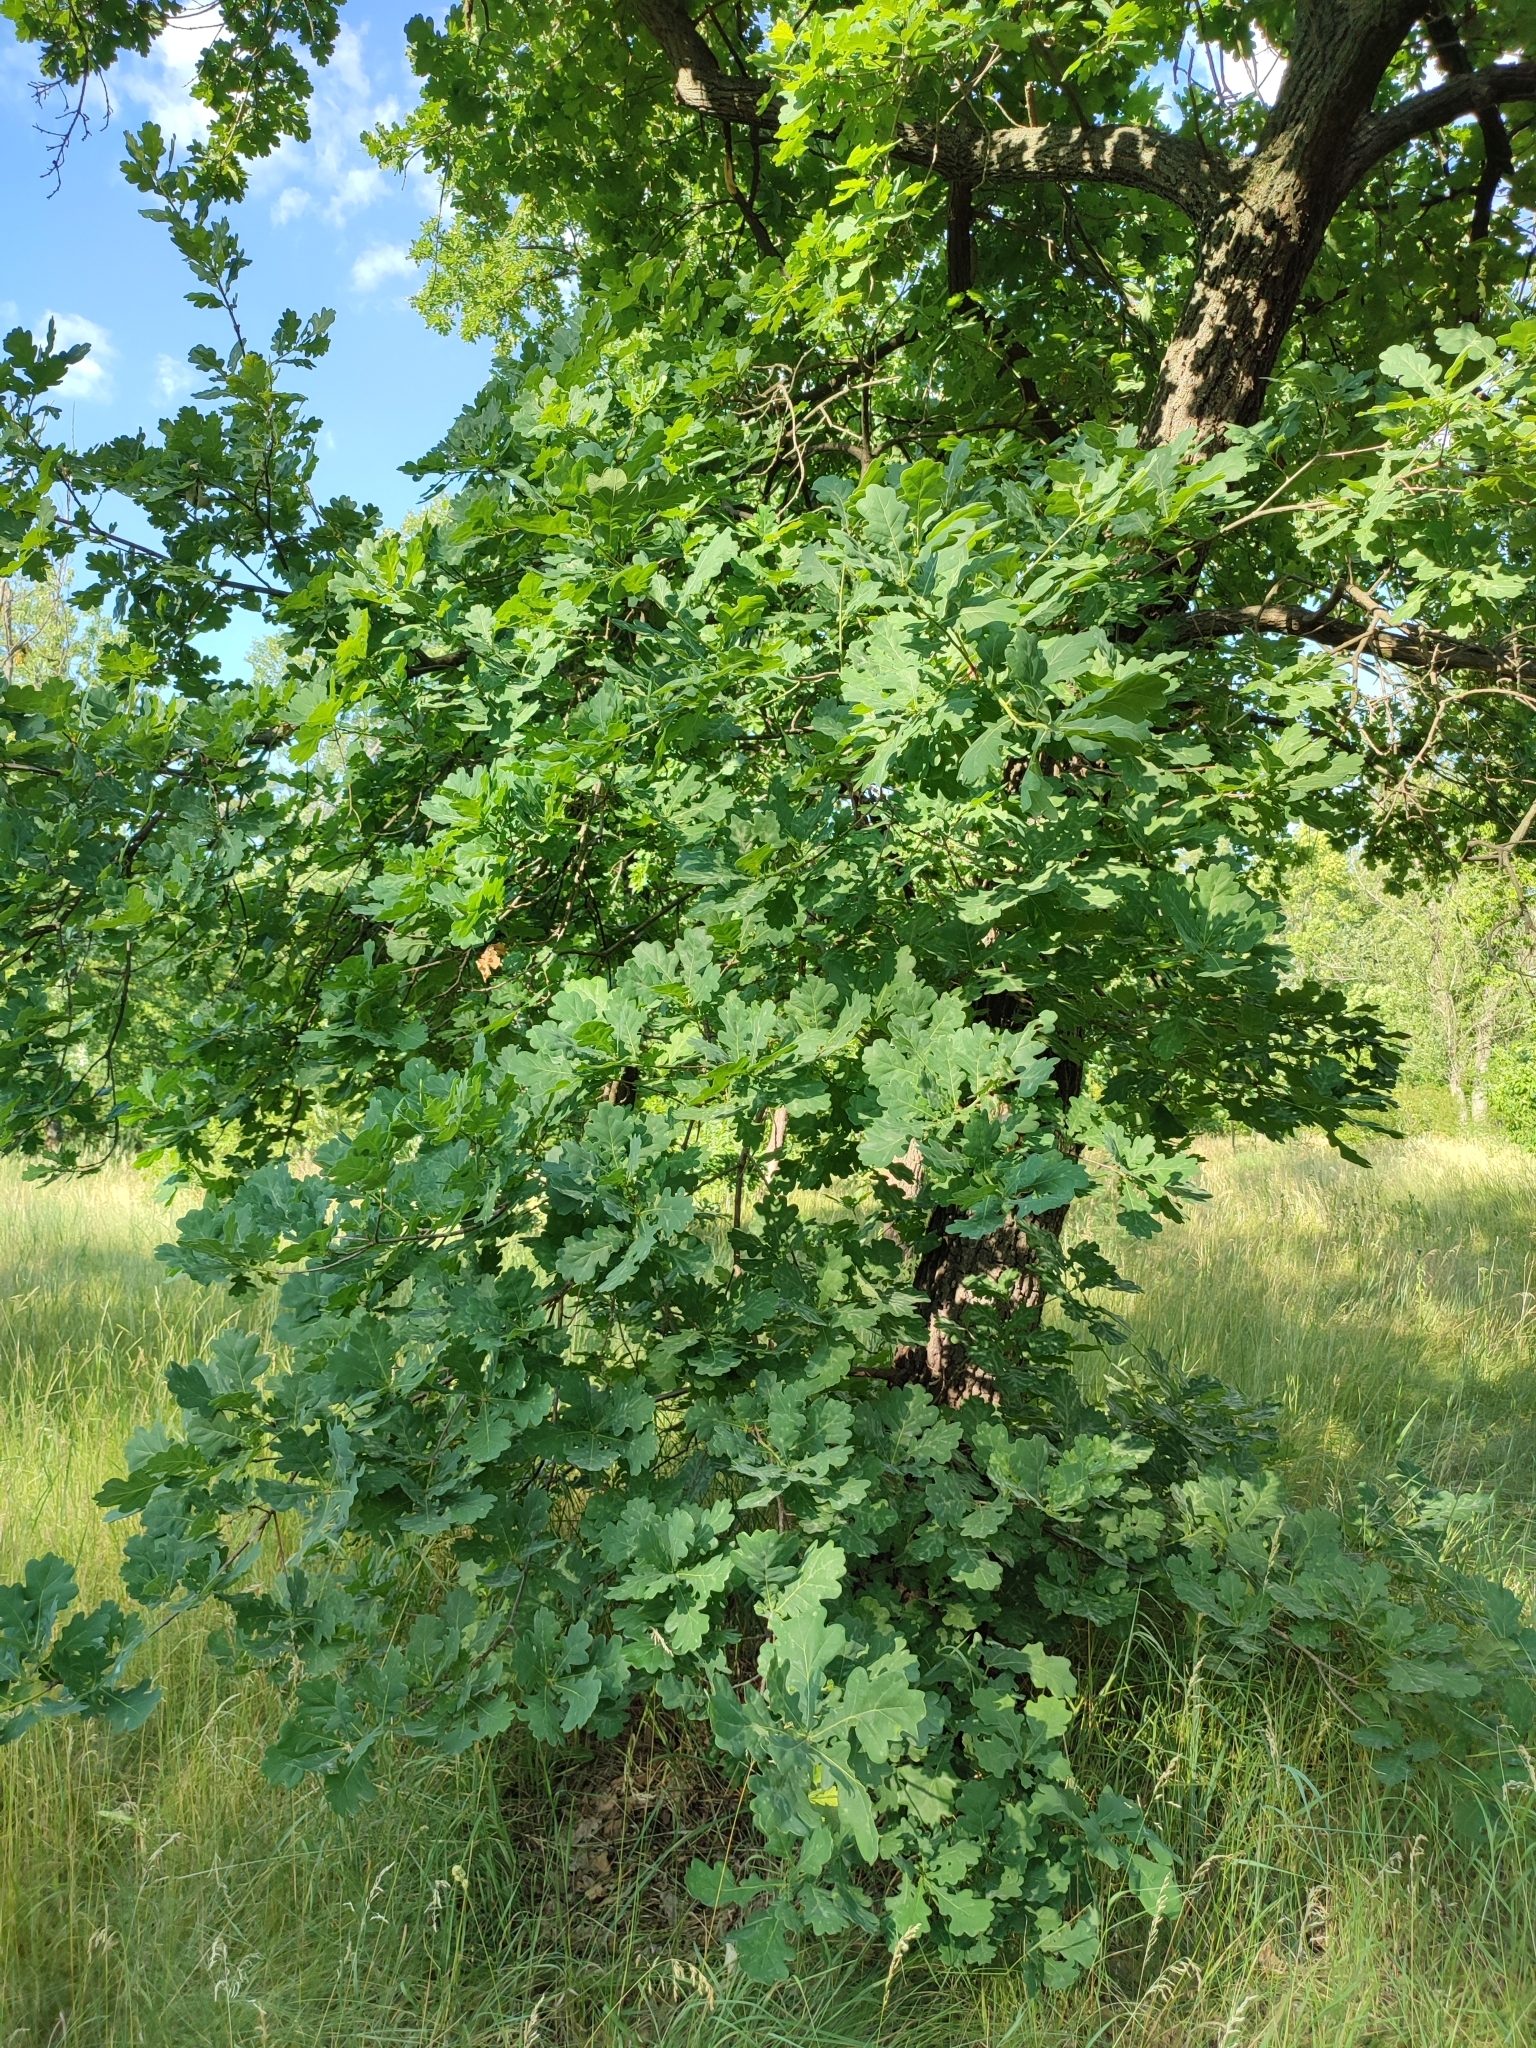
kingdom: Plantae
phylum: Tracheophyta
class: Magnoliopsida
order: Fagales
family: Fagaceae
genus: Quercus
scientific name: Quercus robur
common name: Pedunculate oak
